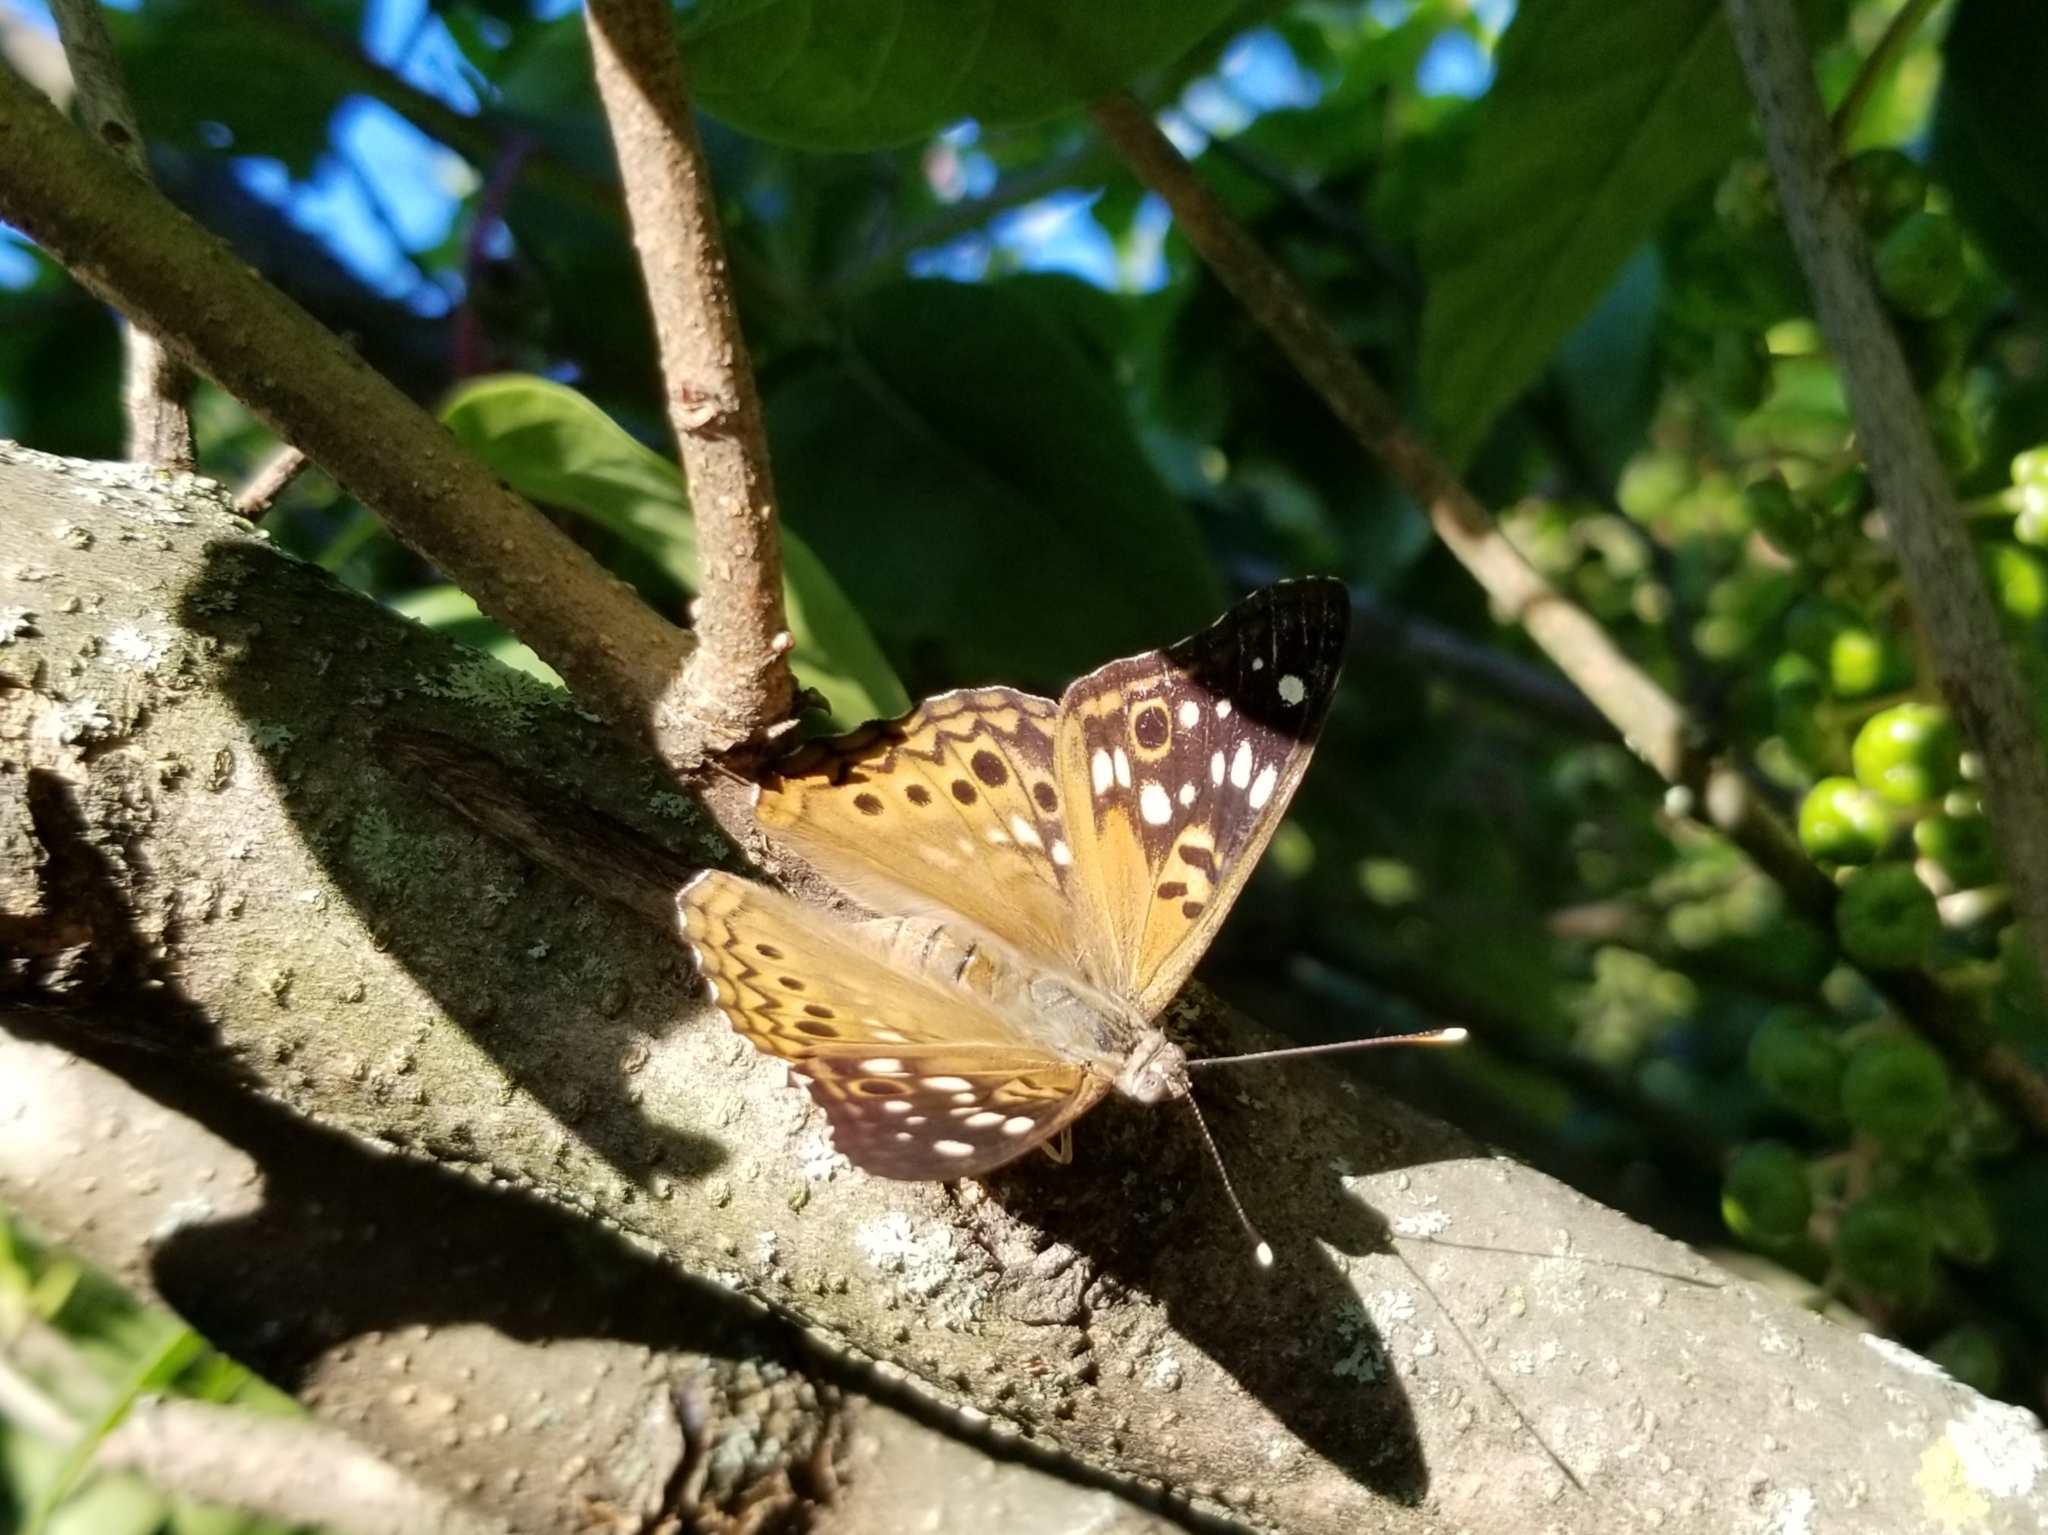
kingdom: Animalia
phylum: Arthropoda
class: Insecta
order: Lepidoptera
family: Nymphalidae
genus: Asterocampa
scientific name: Asterocampa celtis
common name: Hackberry emperor
